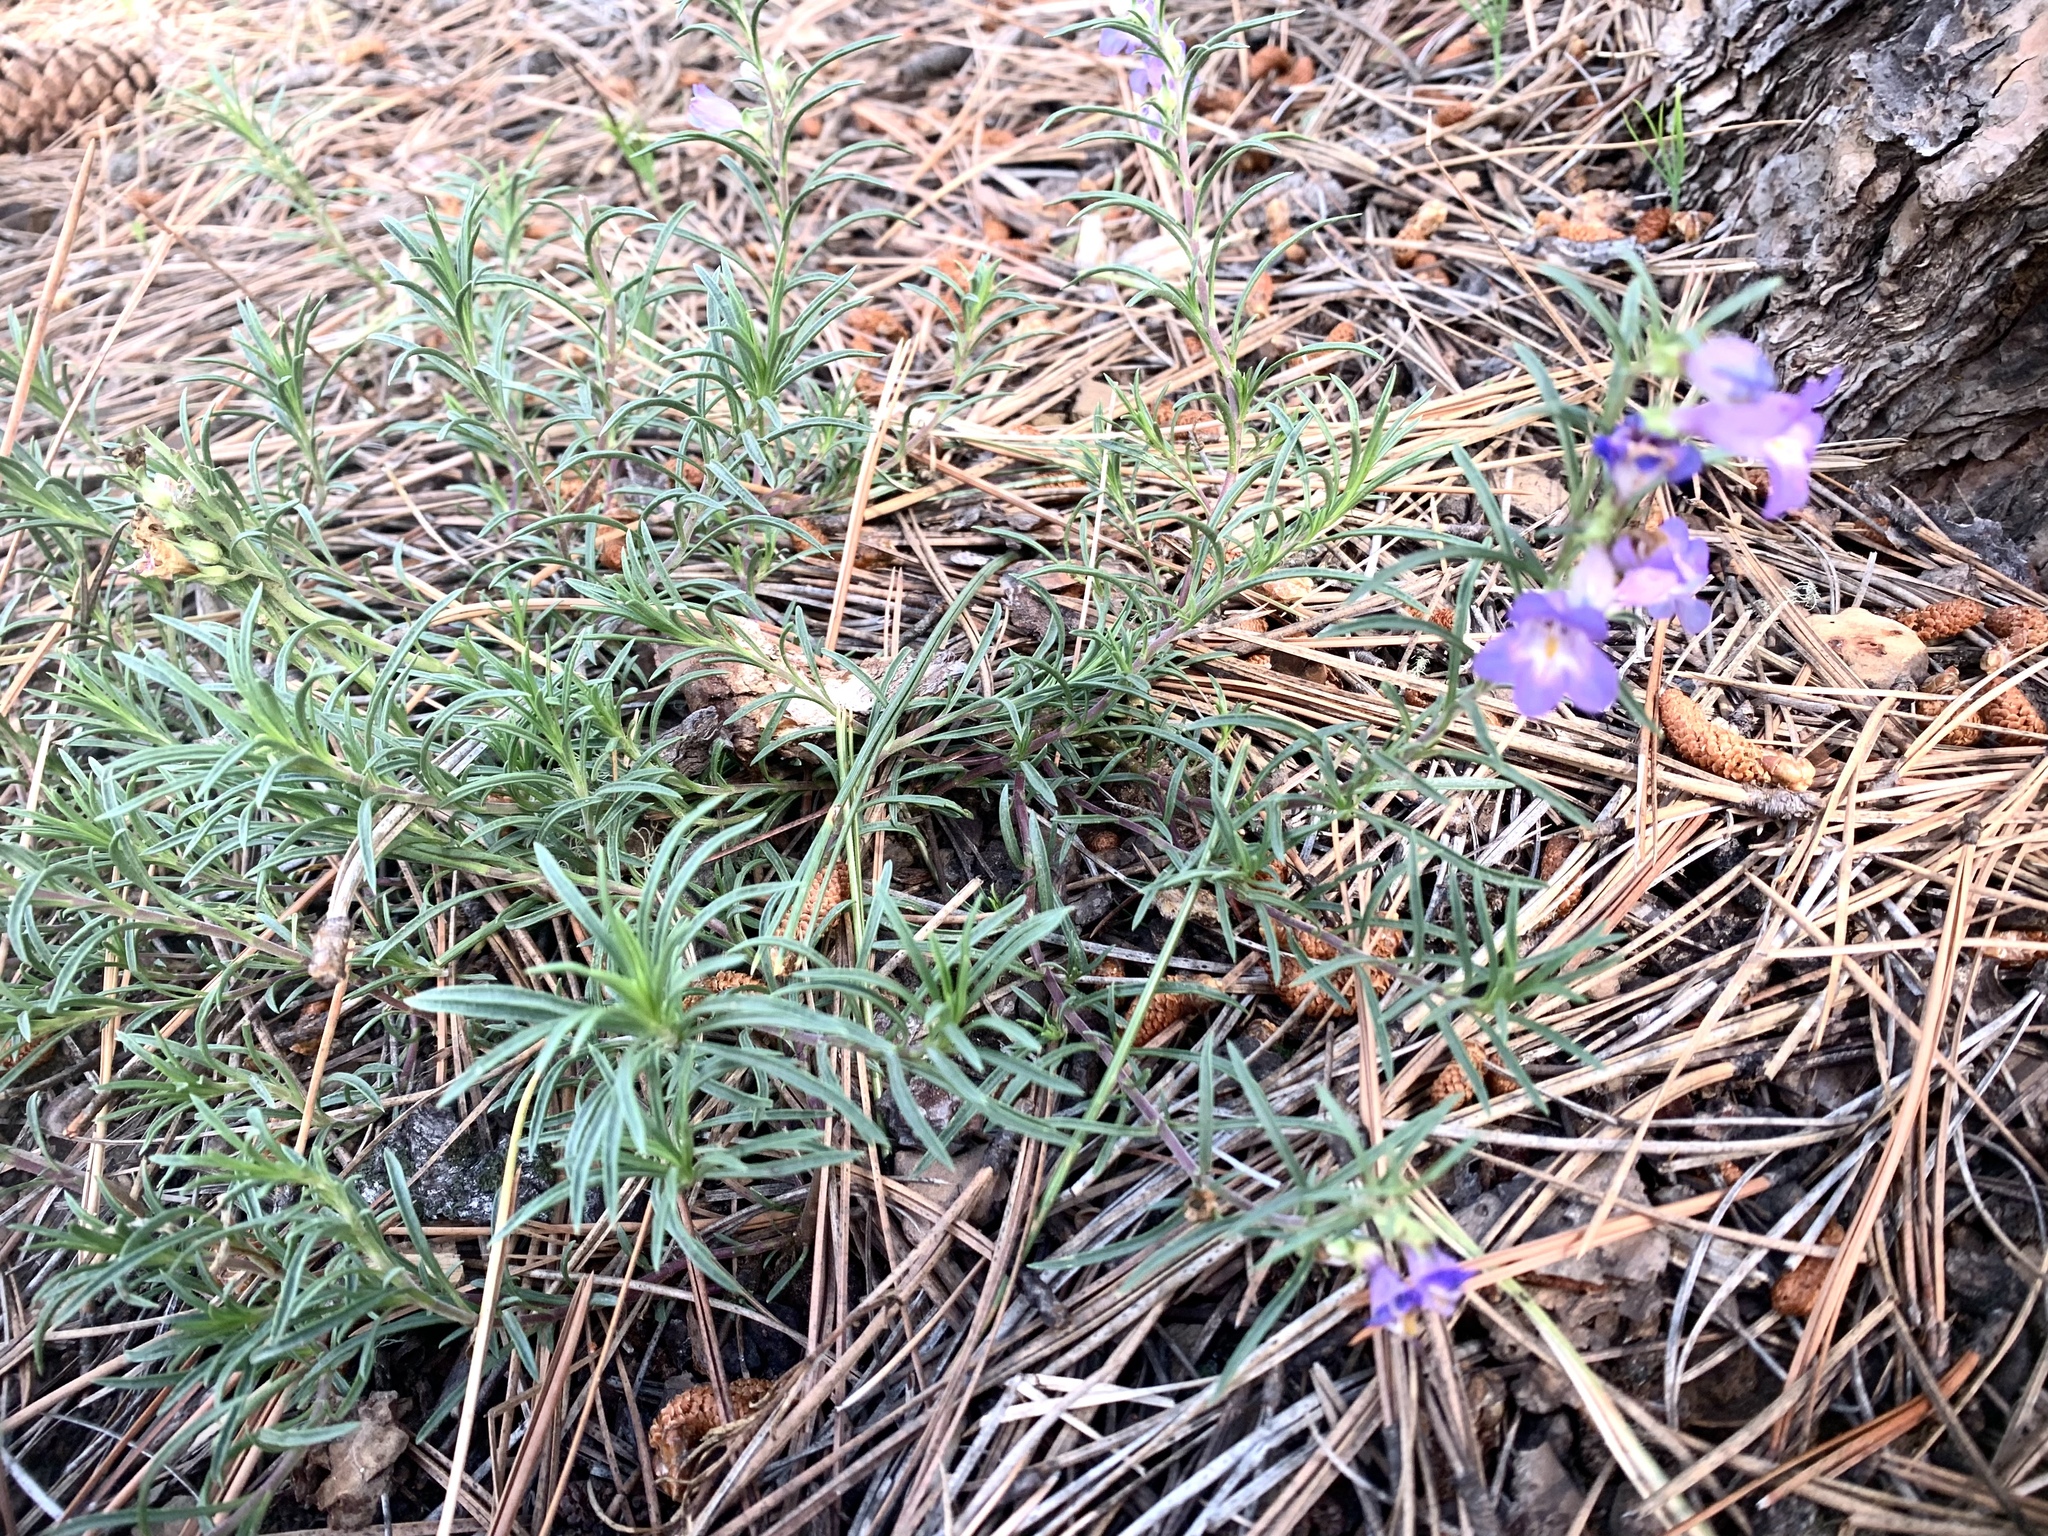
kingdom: Plantae
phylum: Tracheophyta
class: Magnoliopsida
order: Lamiales
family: Plantaginaceae
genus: Penstemon
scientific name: Penstemon linarioides
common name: Siler's penstemon
